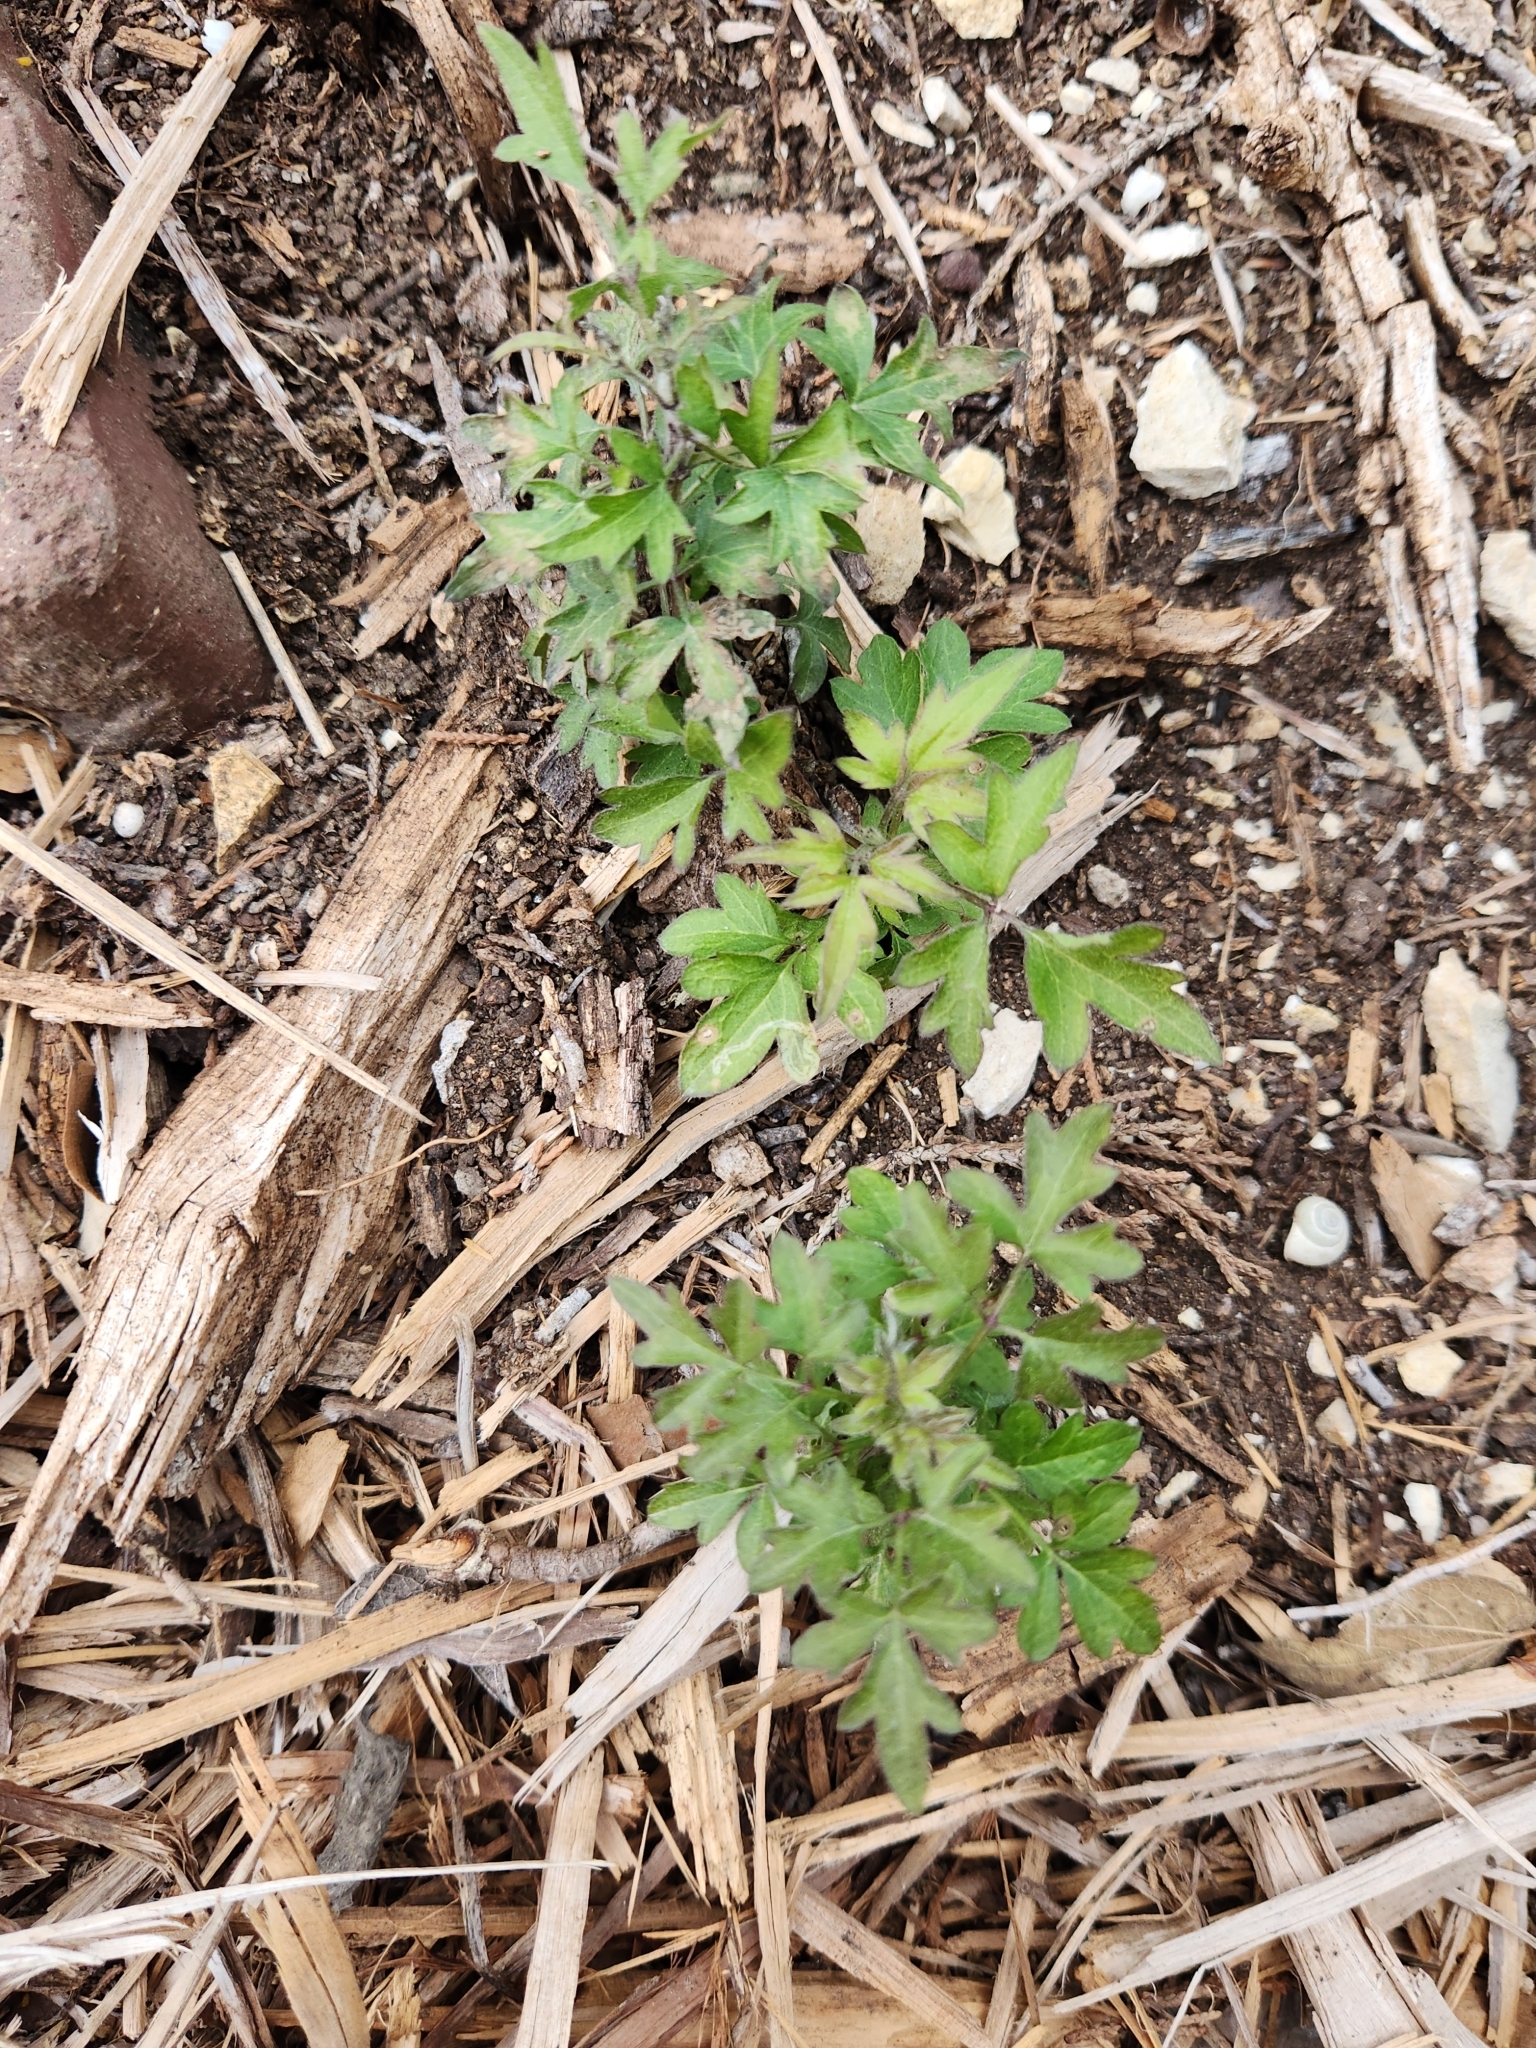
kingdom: Plantae
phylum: Tracheophyta
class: Magnoliopsida
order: Ranunculales
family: Ranunculaceae
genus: Clematis
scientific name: Clematis drummondii
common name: Texas virgin's bower
